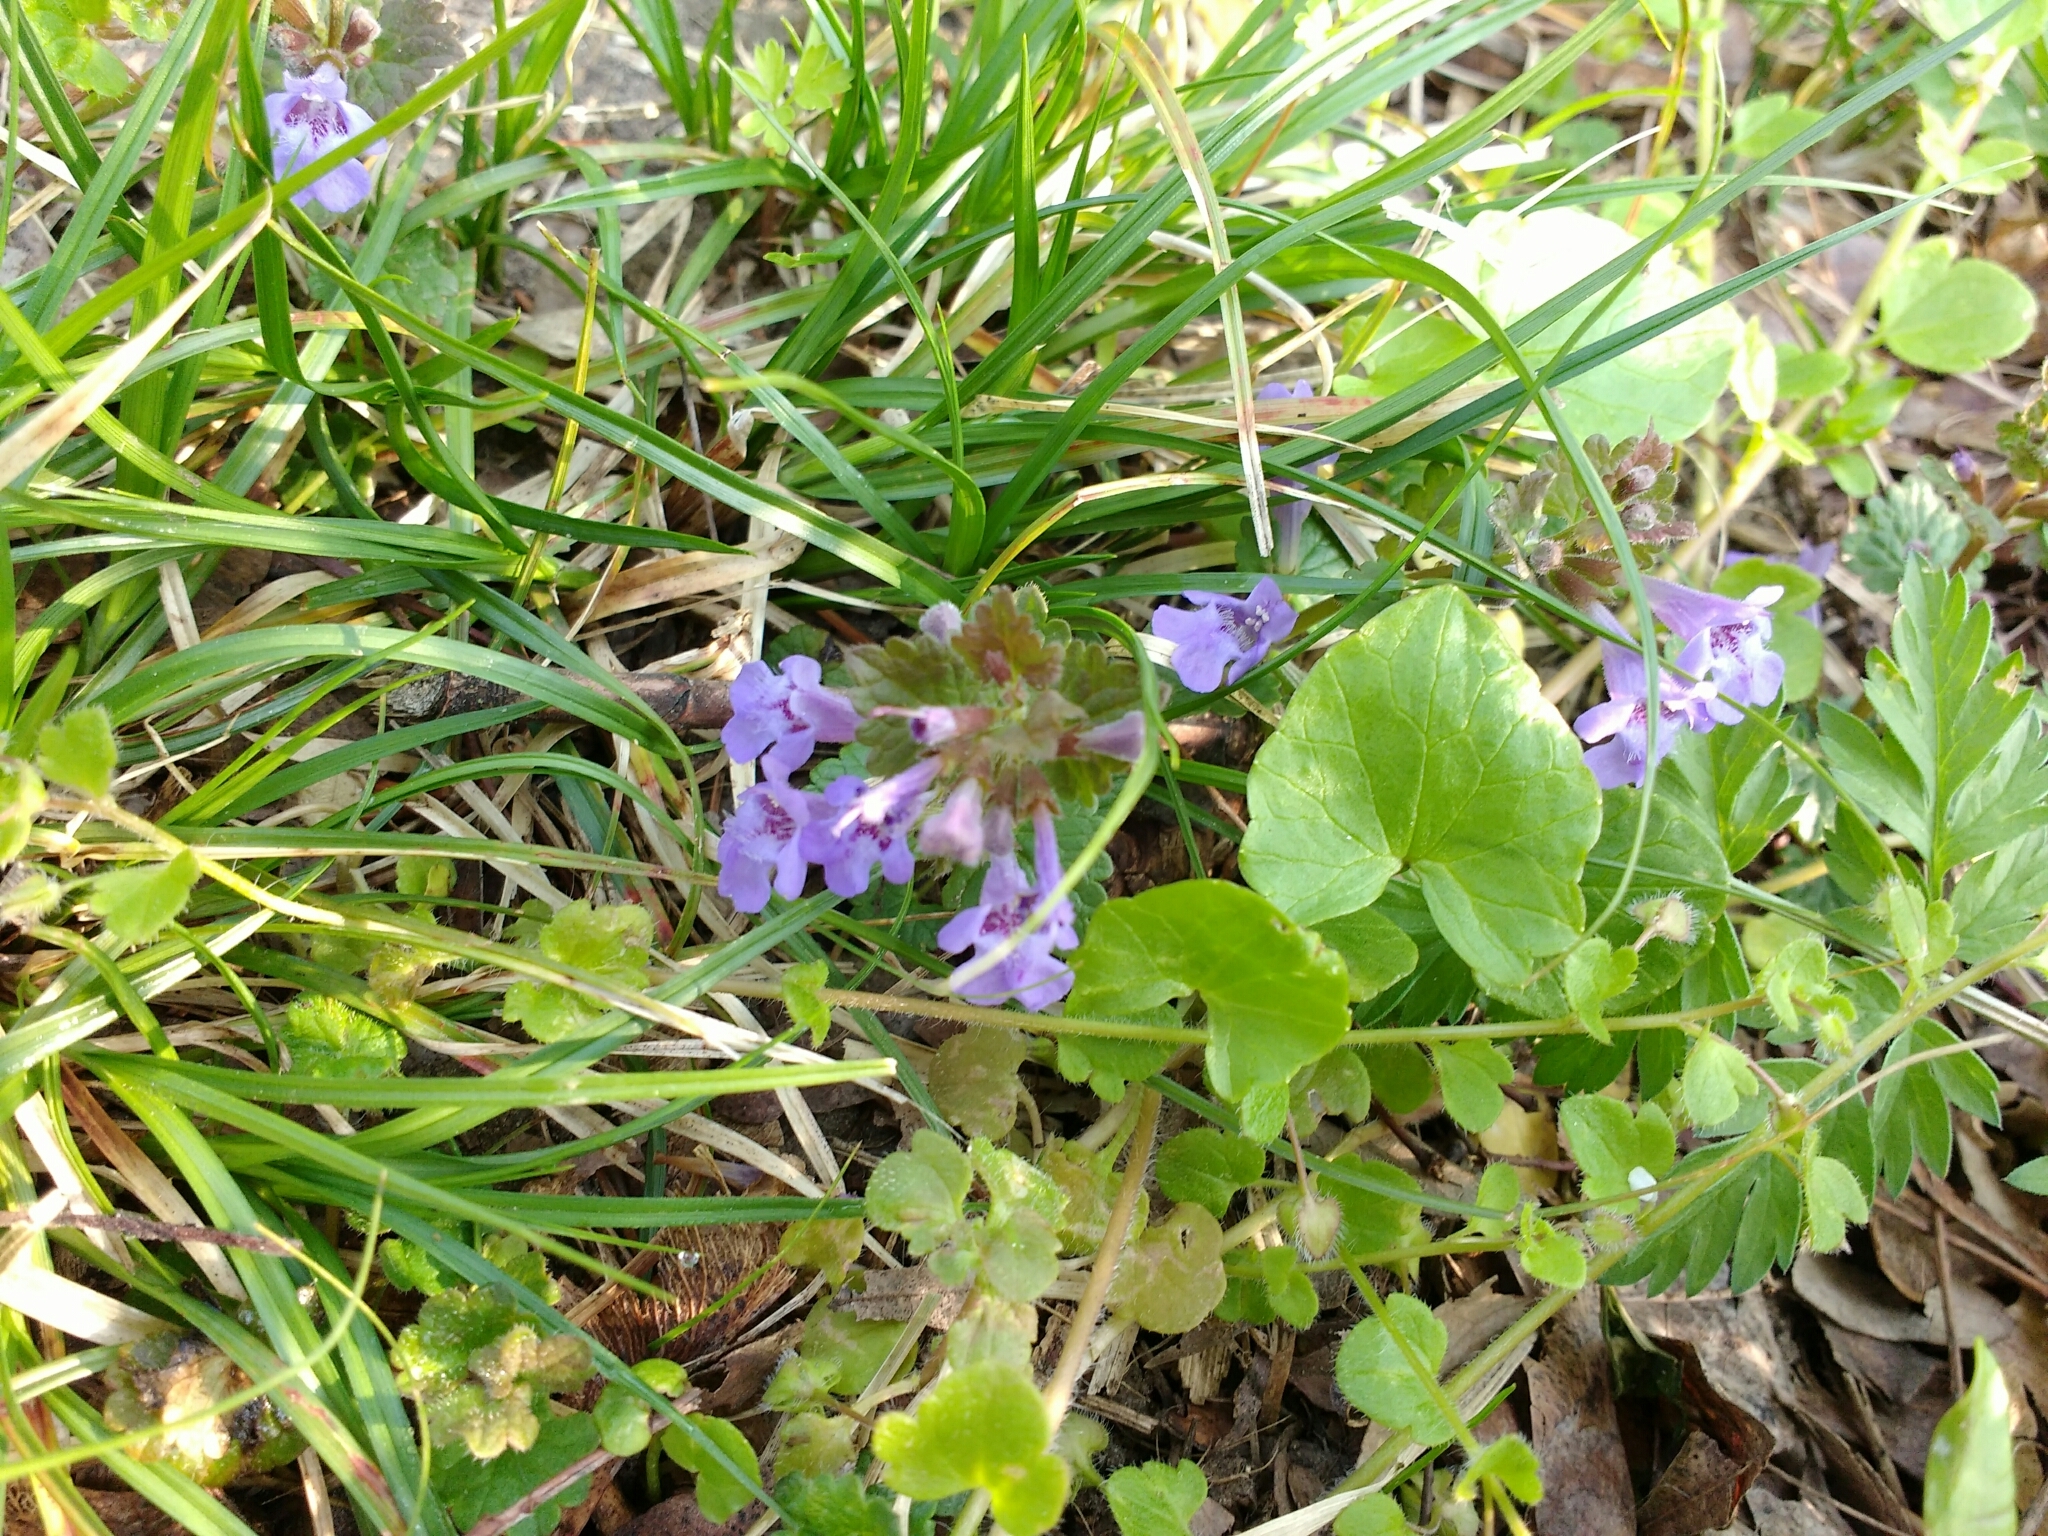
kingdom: Plantae
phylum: Tracheophyta
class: Magnoliopsida
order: Lamiales
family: Lamiaceae
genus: Glechoma
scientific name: Glechoma hederacea
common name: Ground ivy
